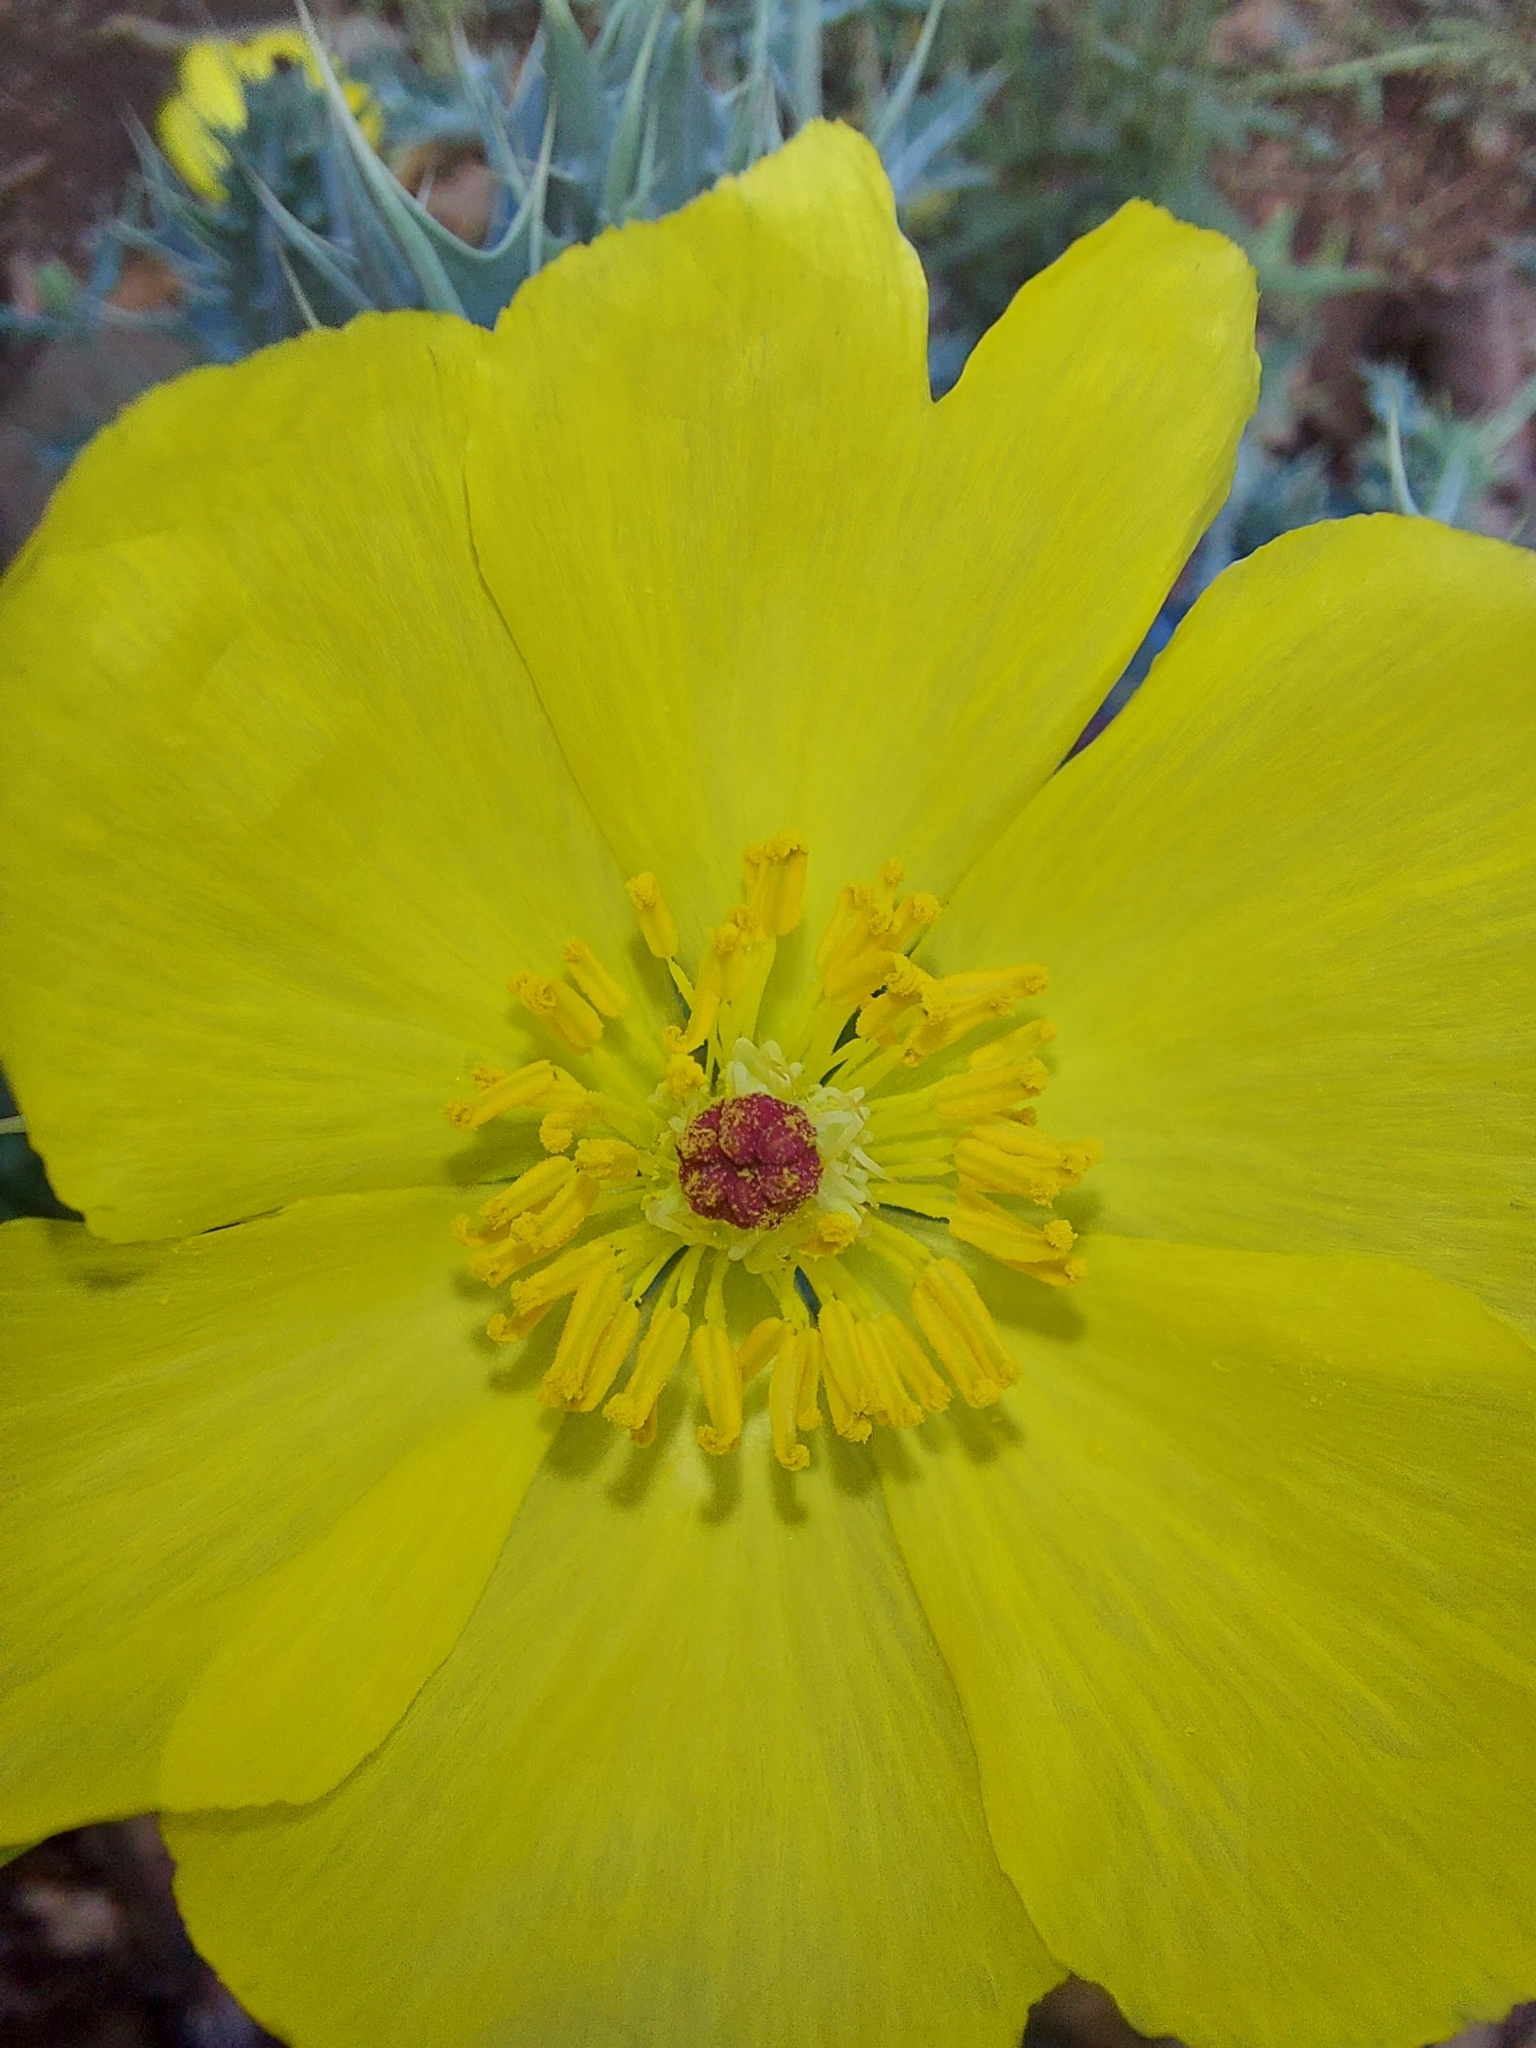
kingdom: Plantae
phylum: Tracheophyta
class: Magnoliopsida
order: Ranunculales
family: Papaveraceae
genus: Argemone
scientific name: Argemone mexicana
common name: Mexican poppy
